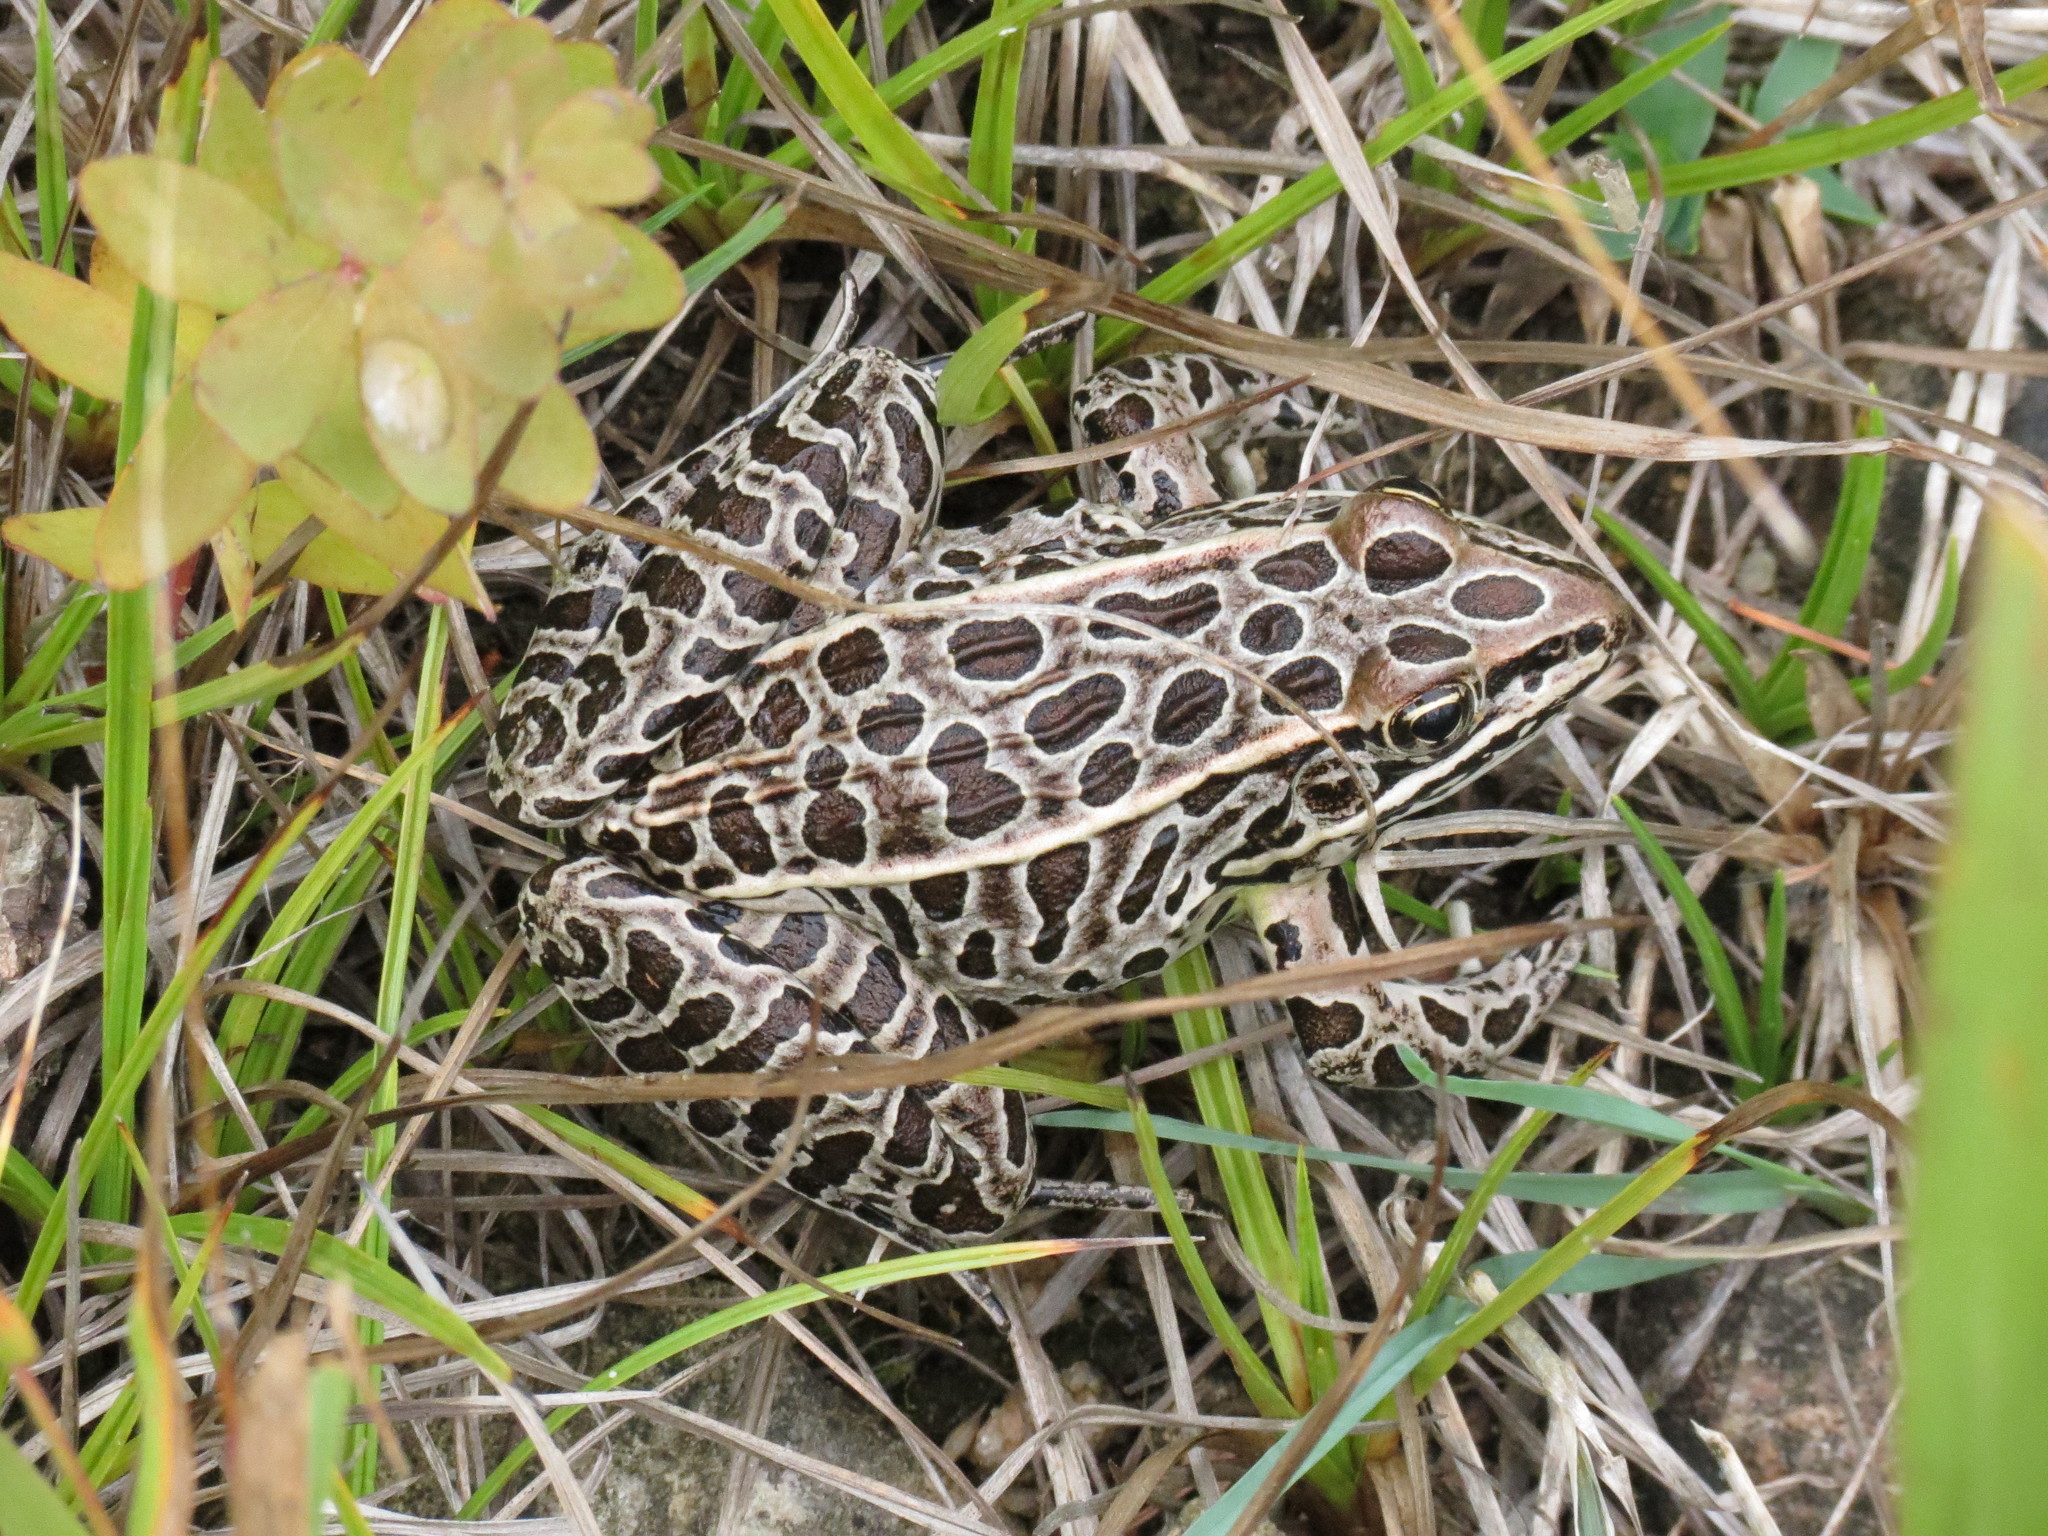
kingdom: Animalia
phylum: Chordata
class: Amphibia
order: Anura
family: Ranidae
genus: Lithobates
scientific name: Lithobates pipiens
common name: Northern leopard frog
